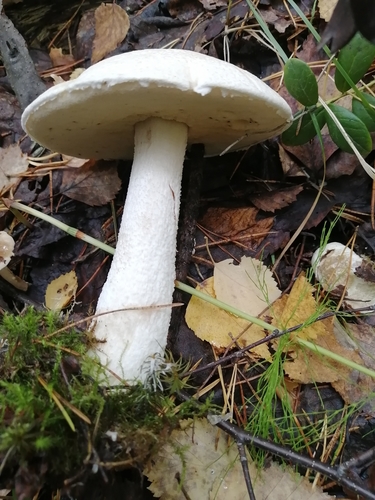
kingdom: Fungi
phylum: Basidiomycota
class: Agaricomycetes
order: Boletales
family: Boletaceae
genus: Leccinum
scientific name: Leccinum versipelle
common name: Orange birch bolete
